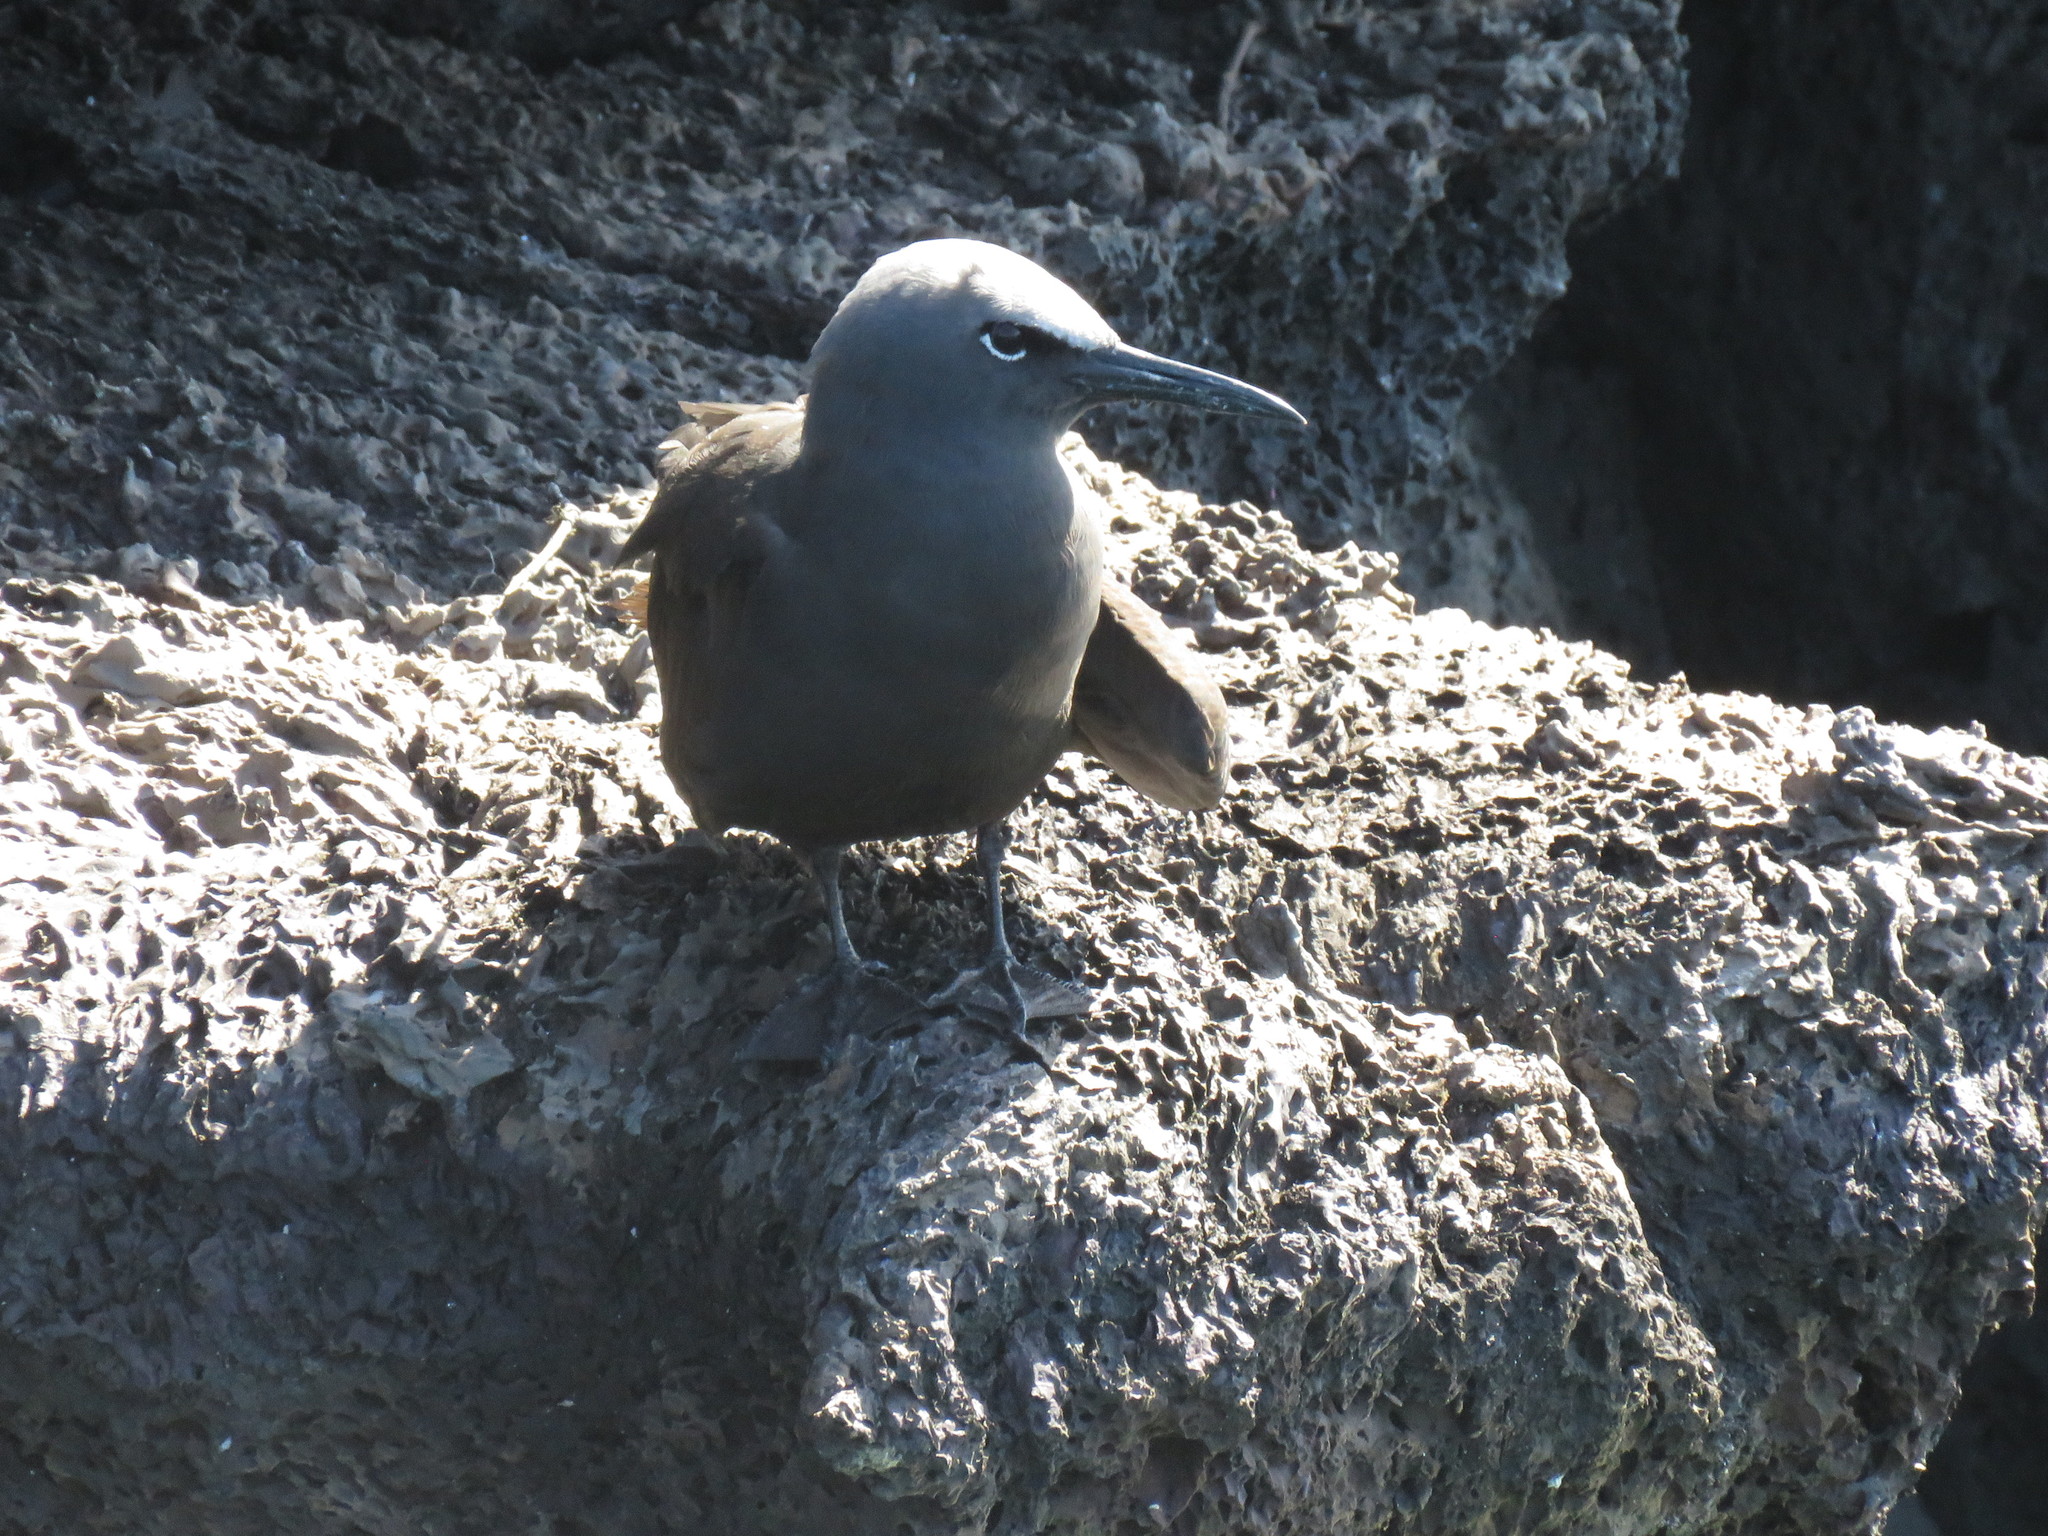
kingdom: Animalia
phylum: Chordata
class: Aves
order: Charadriiformes
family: Laridae
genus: Anous
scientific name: Anous stolidus
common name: Brown noddy
